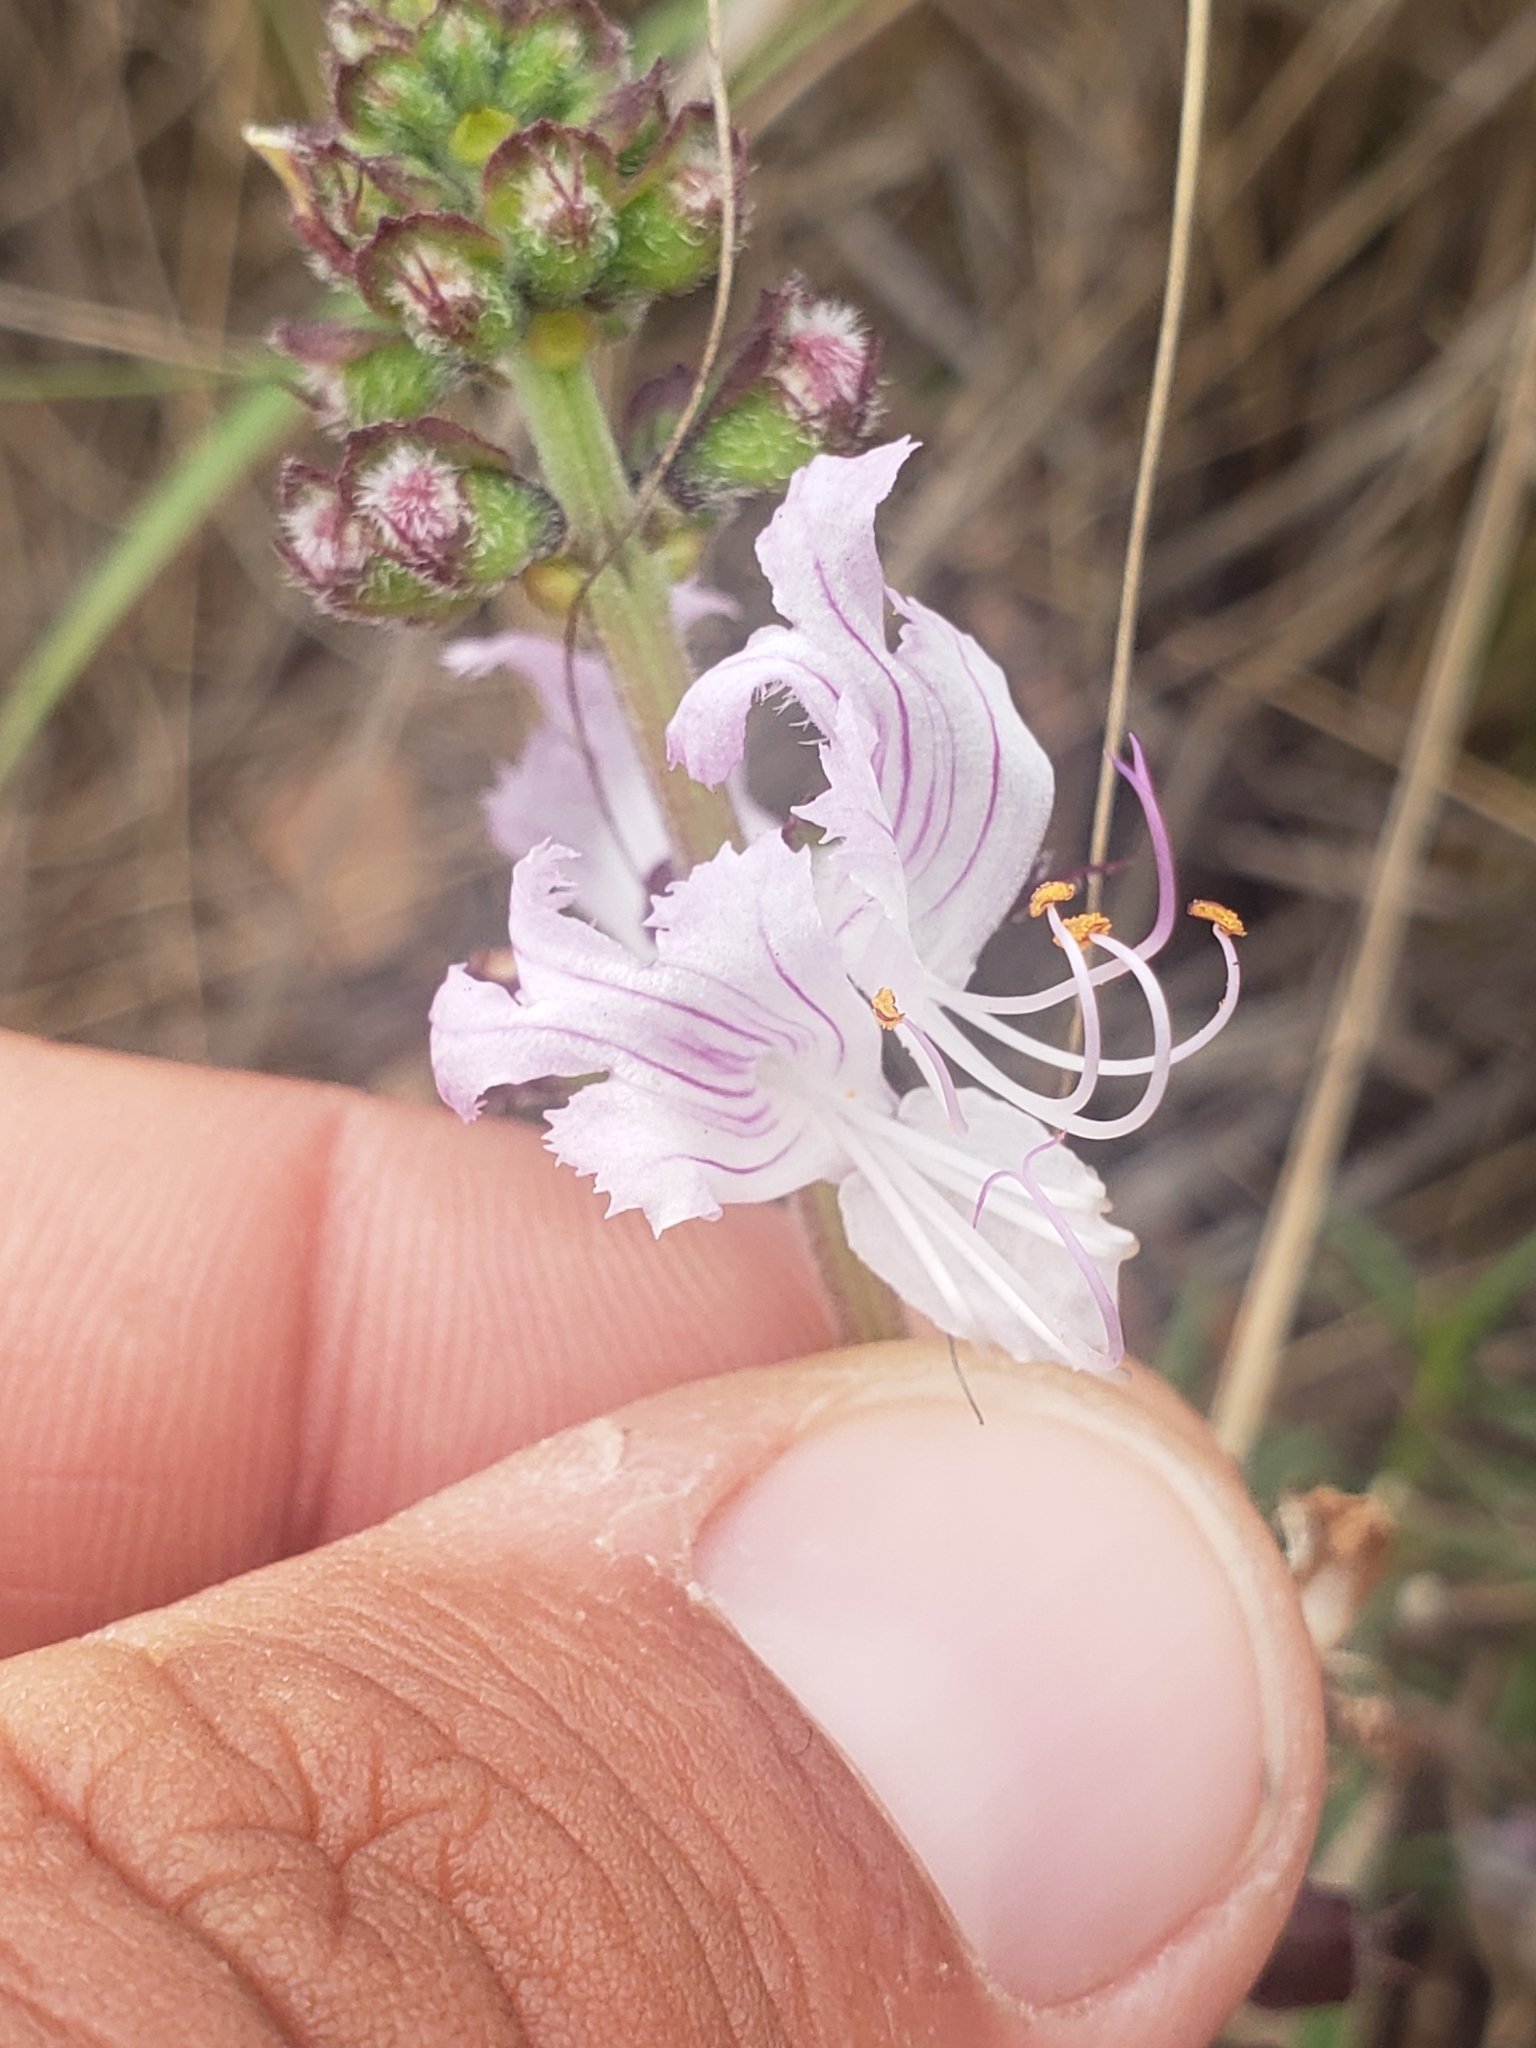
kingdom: Plantae
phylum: Tracheophyta
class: Magnoliopsida
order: Lamiales
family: Lamiaceae
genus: Ocimum
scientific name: Ocimum obovatum
